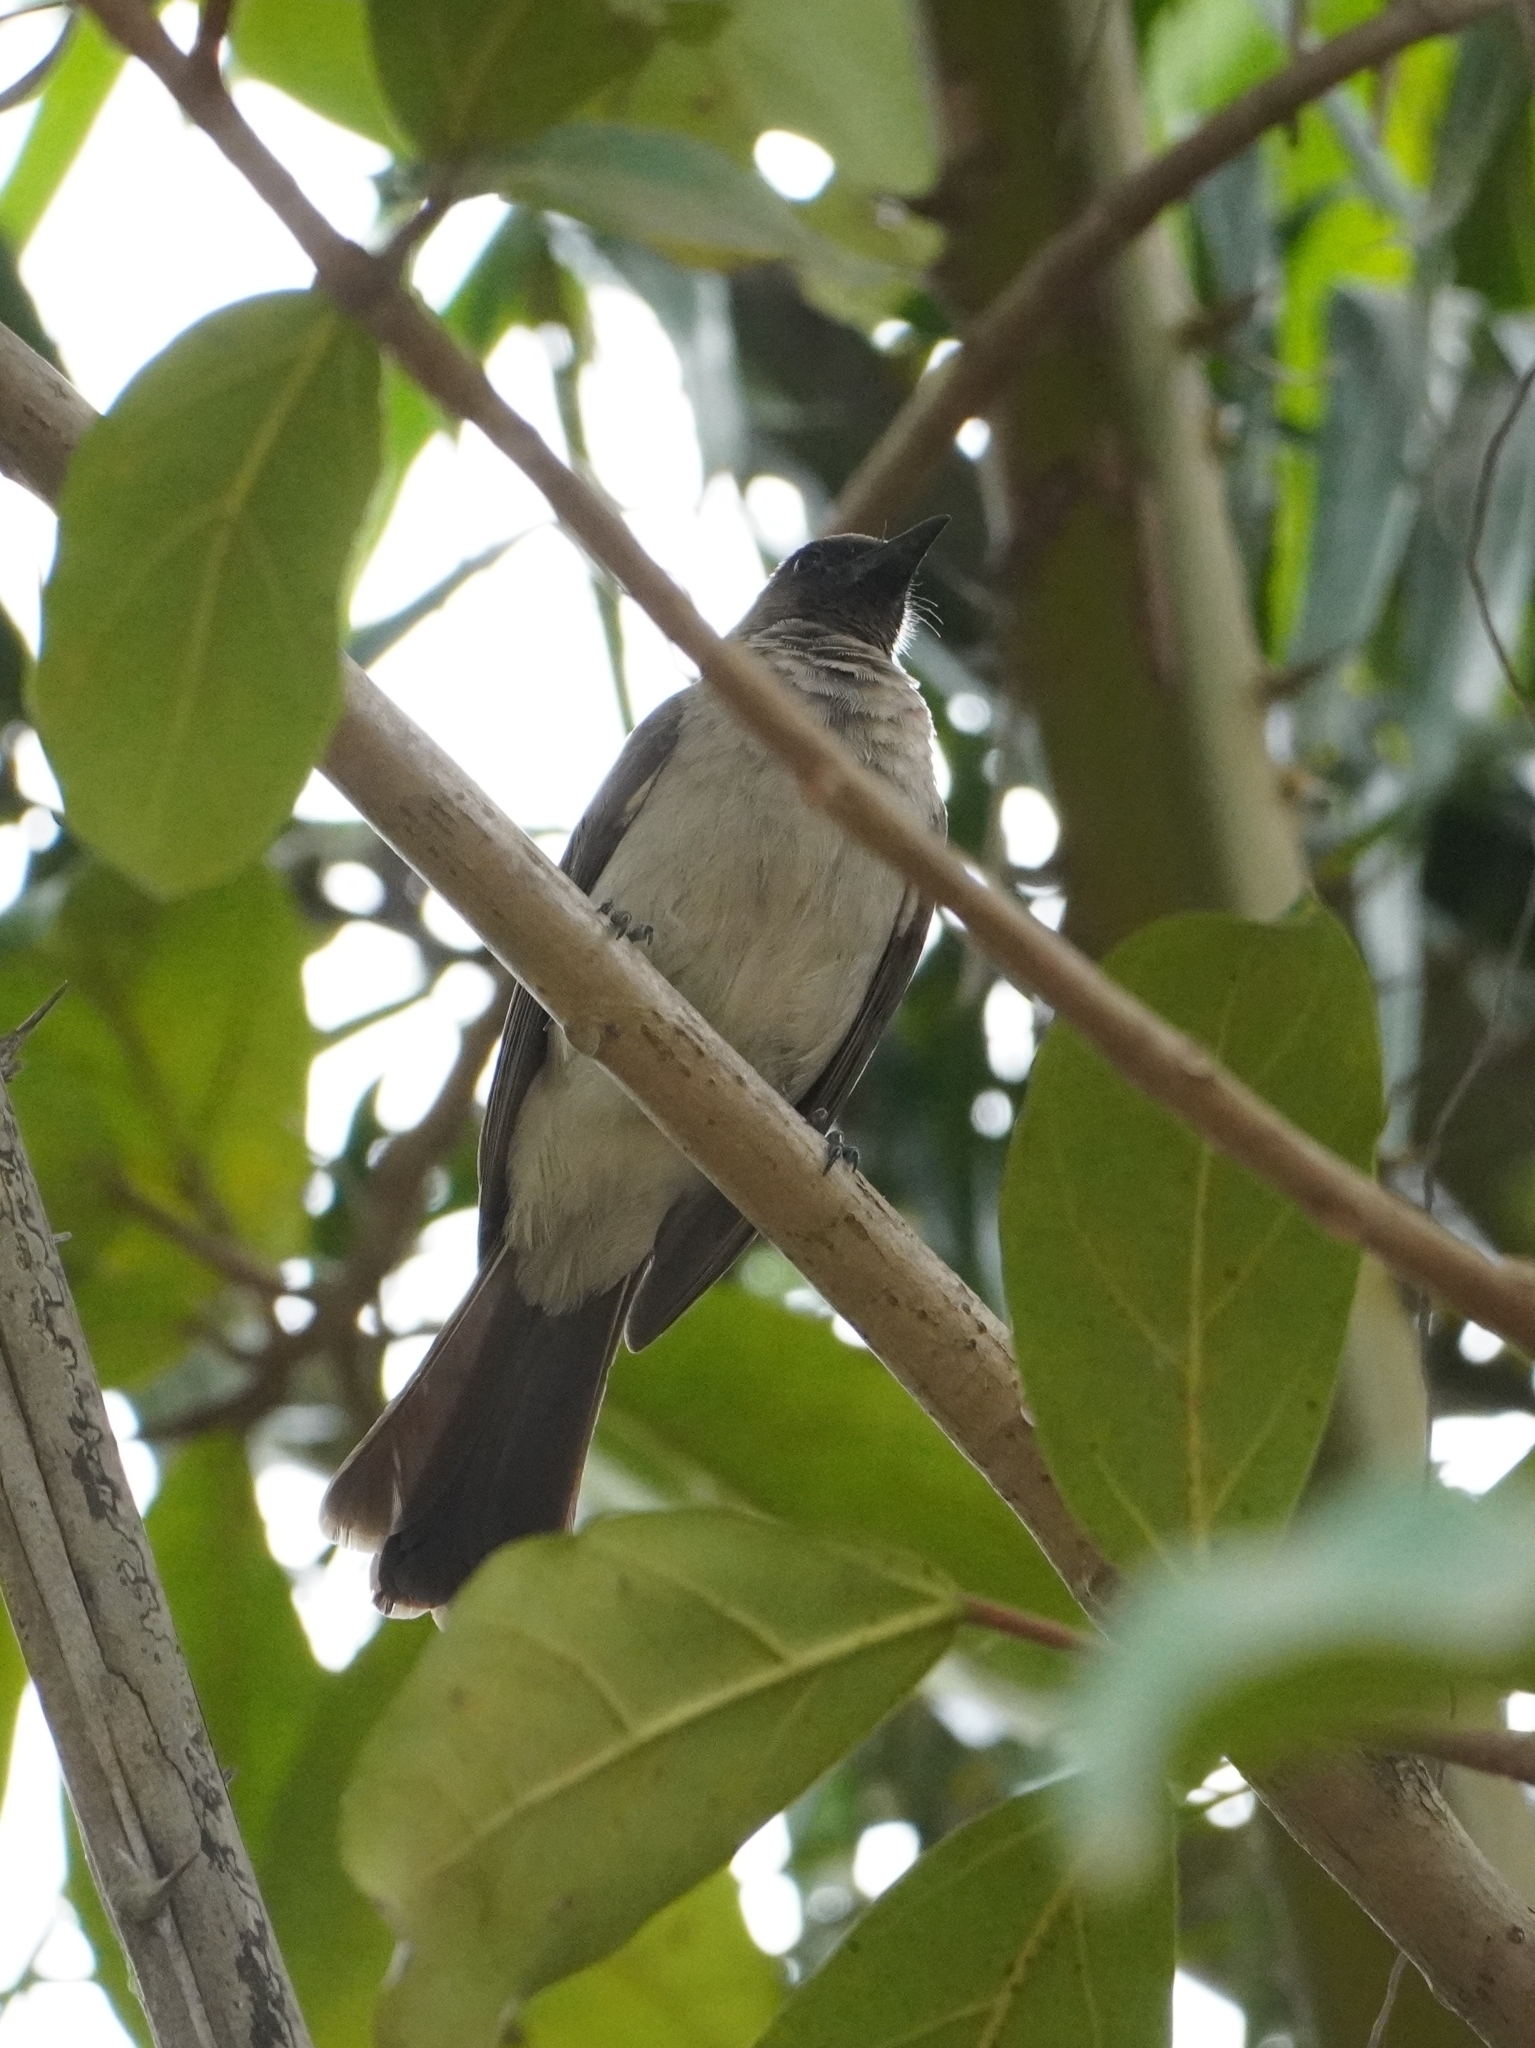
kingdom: Animalia
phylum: Chordata
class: Aves
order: Passeriformes
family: Pycnonotidae
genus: Pycnonotus
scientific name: Pycnonotus barbatus
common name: Common bulbul
